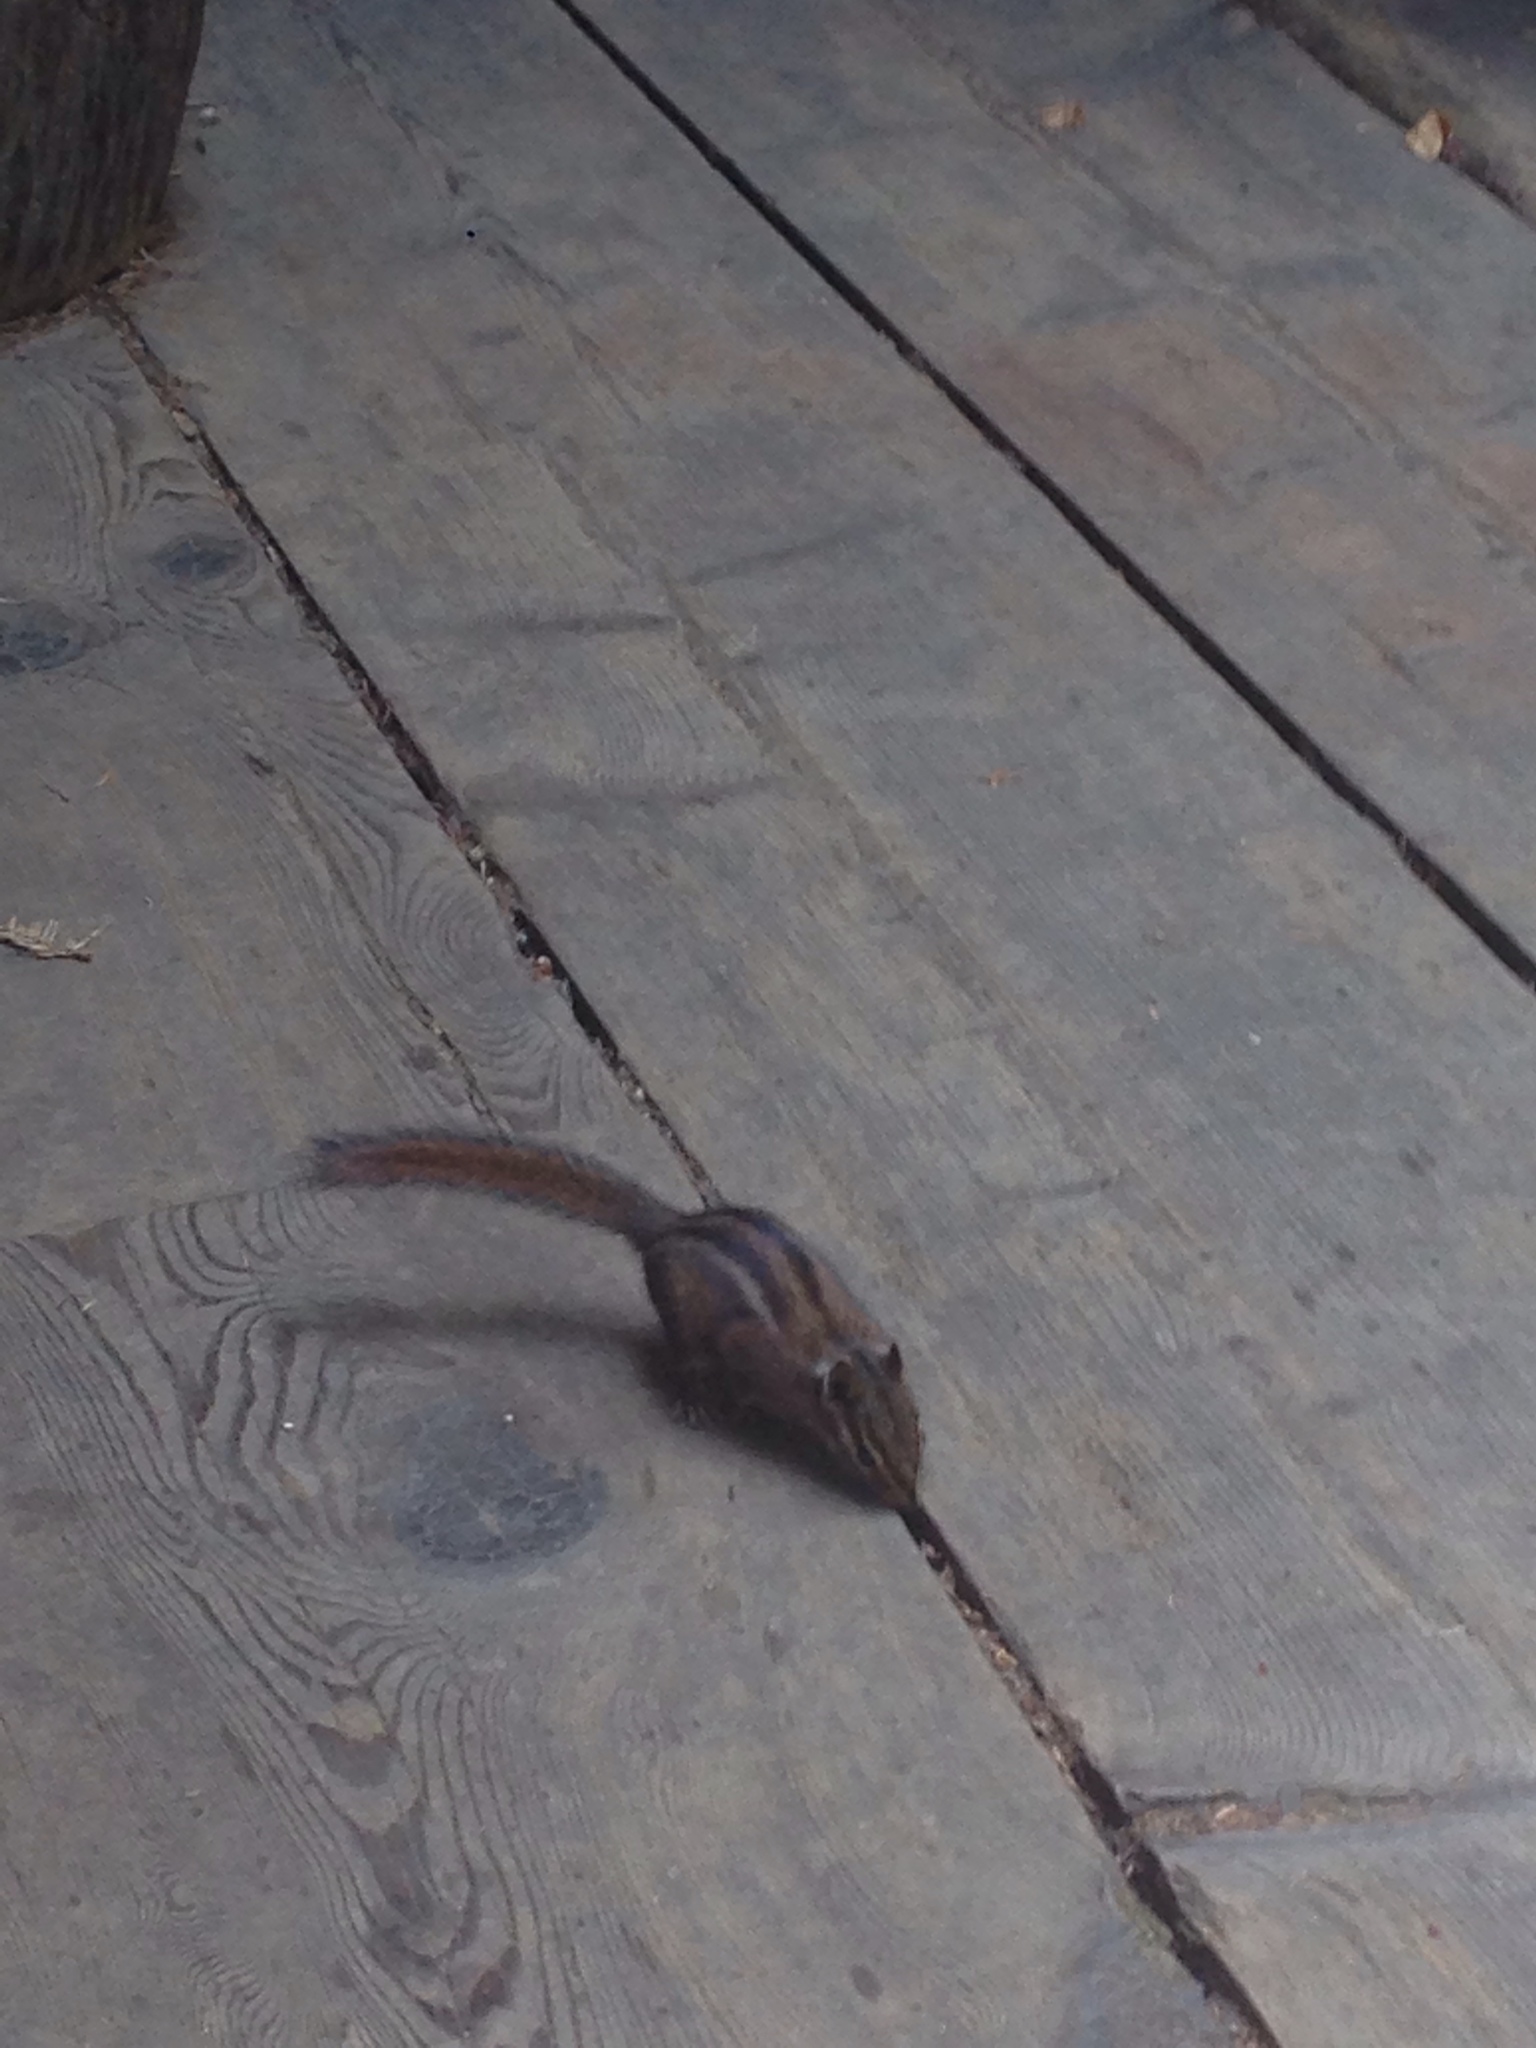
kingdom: Animalia
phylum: Chordata
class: Mammalia
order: Rodentia
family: Sciuridae
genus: Tamias
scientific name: Tamias sonomae
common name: Sonoma chipmunk
